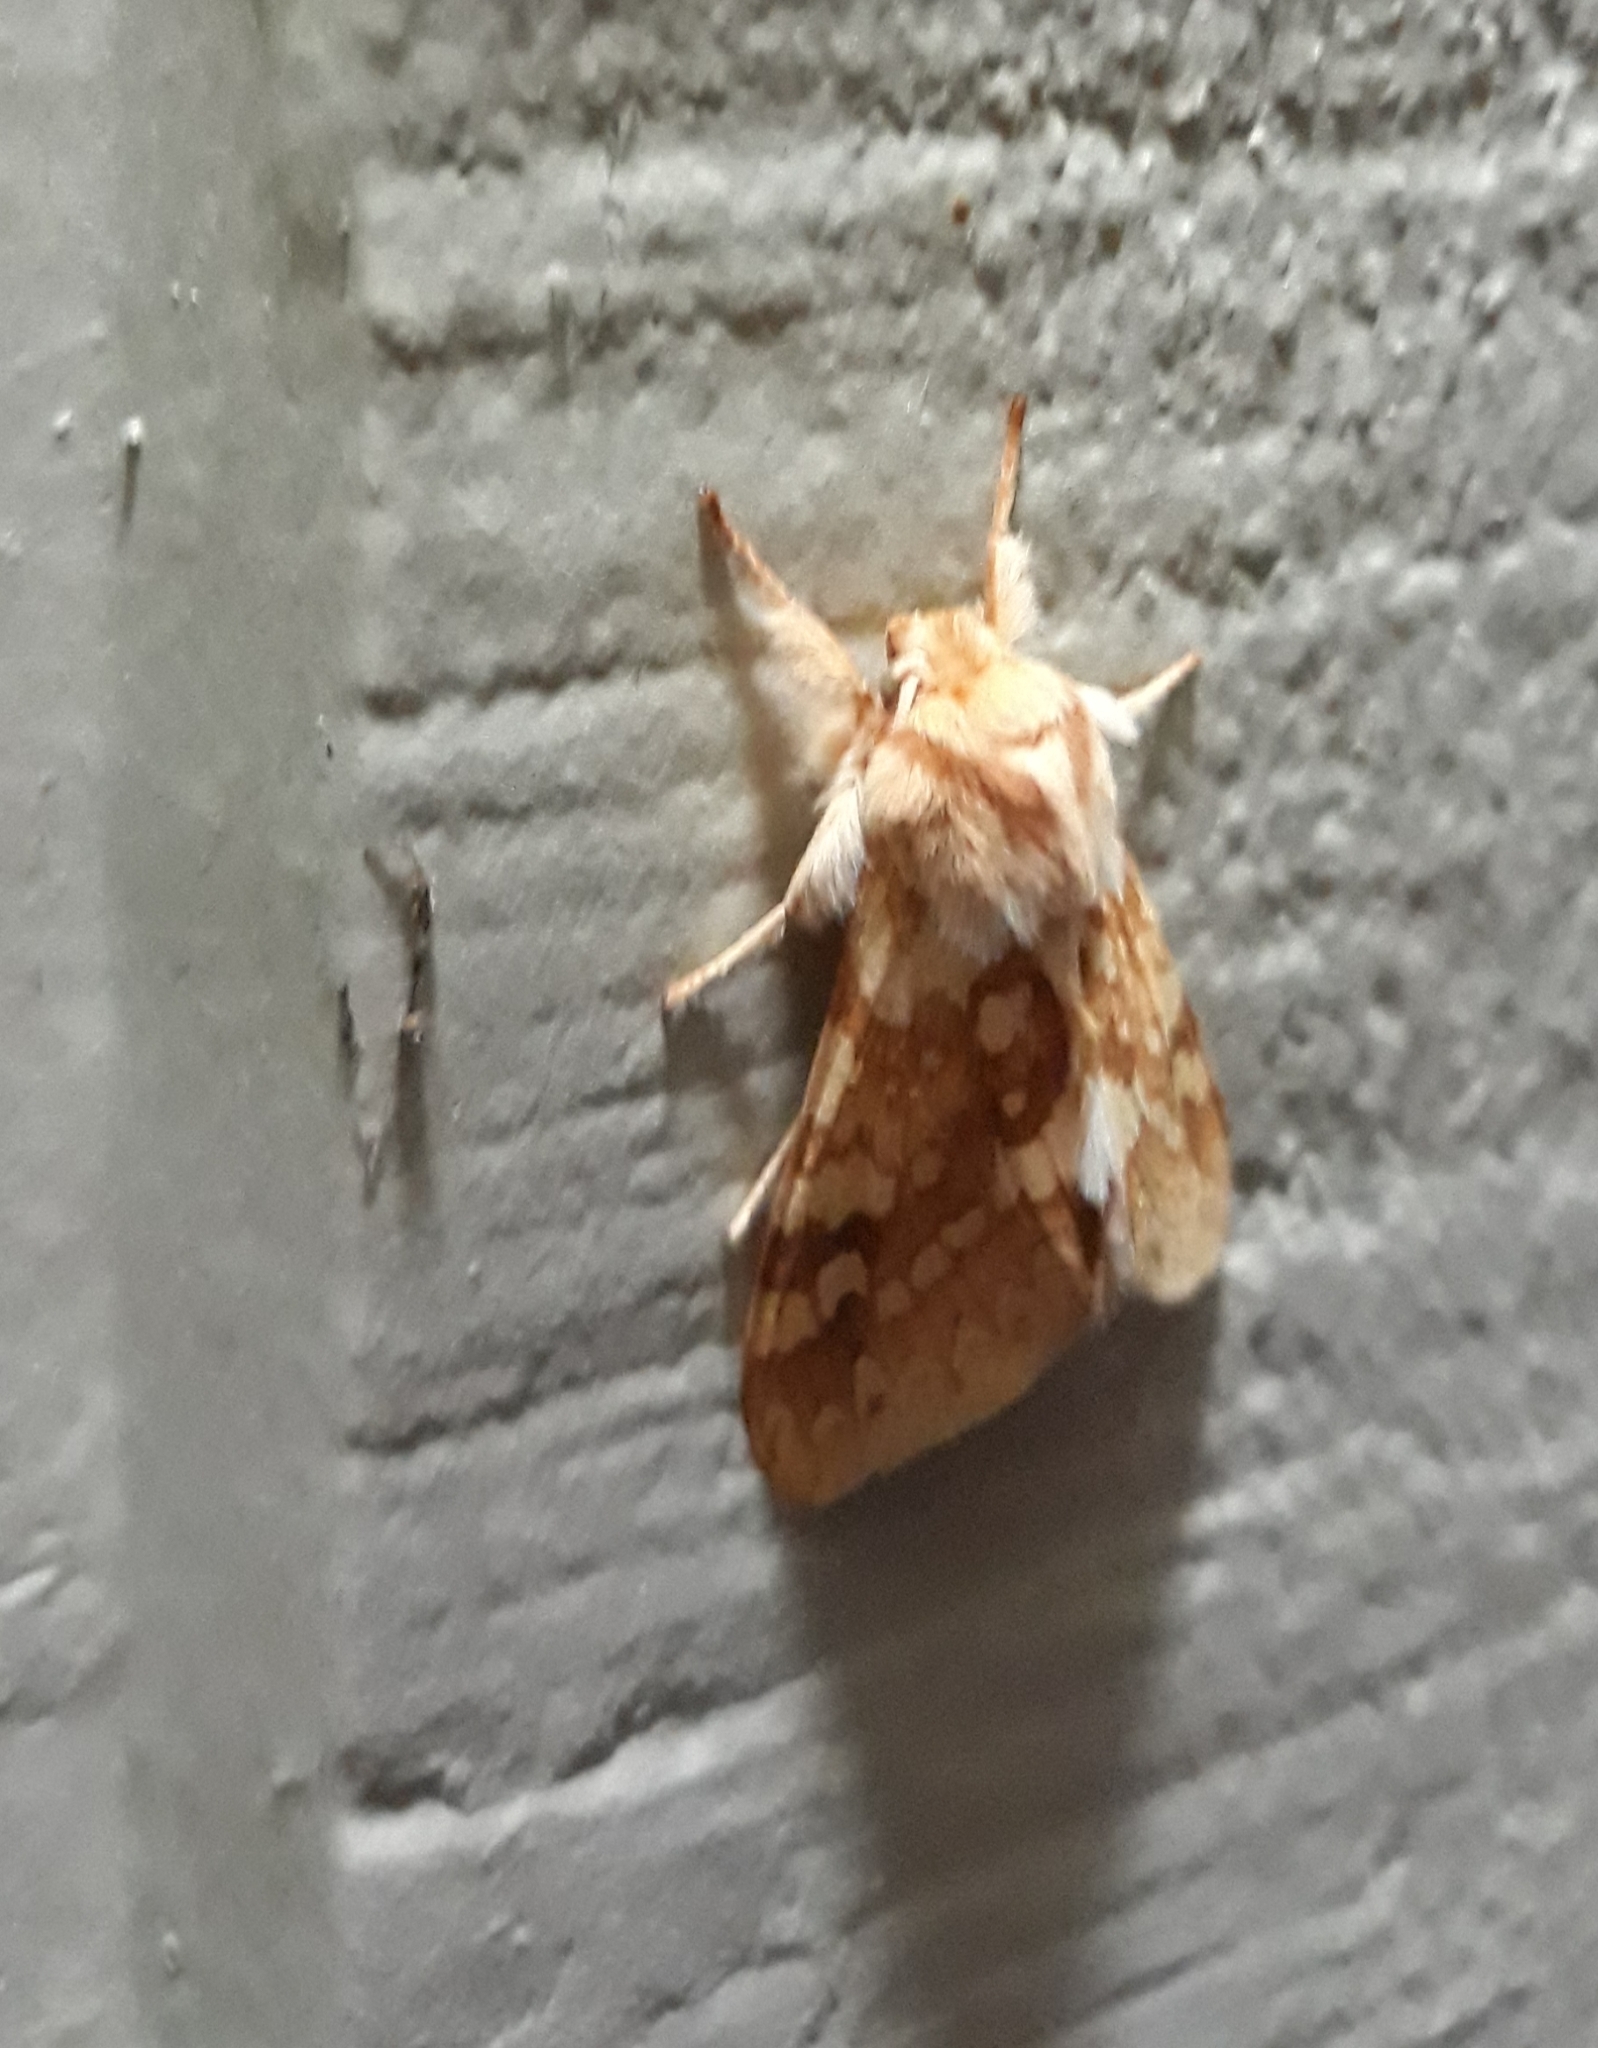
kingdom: Animalia
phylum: Arthropoda
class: Insecta
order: Lepidoptera
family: Erebidae
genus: Lophocampa
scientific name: Lophocampa maculata
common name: Spotted tussock moth
